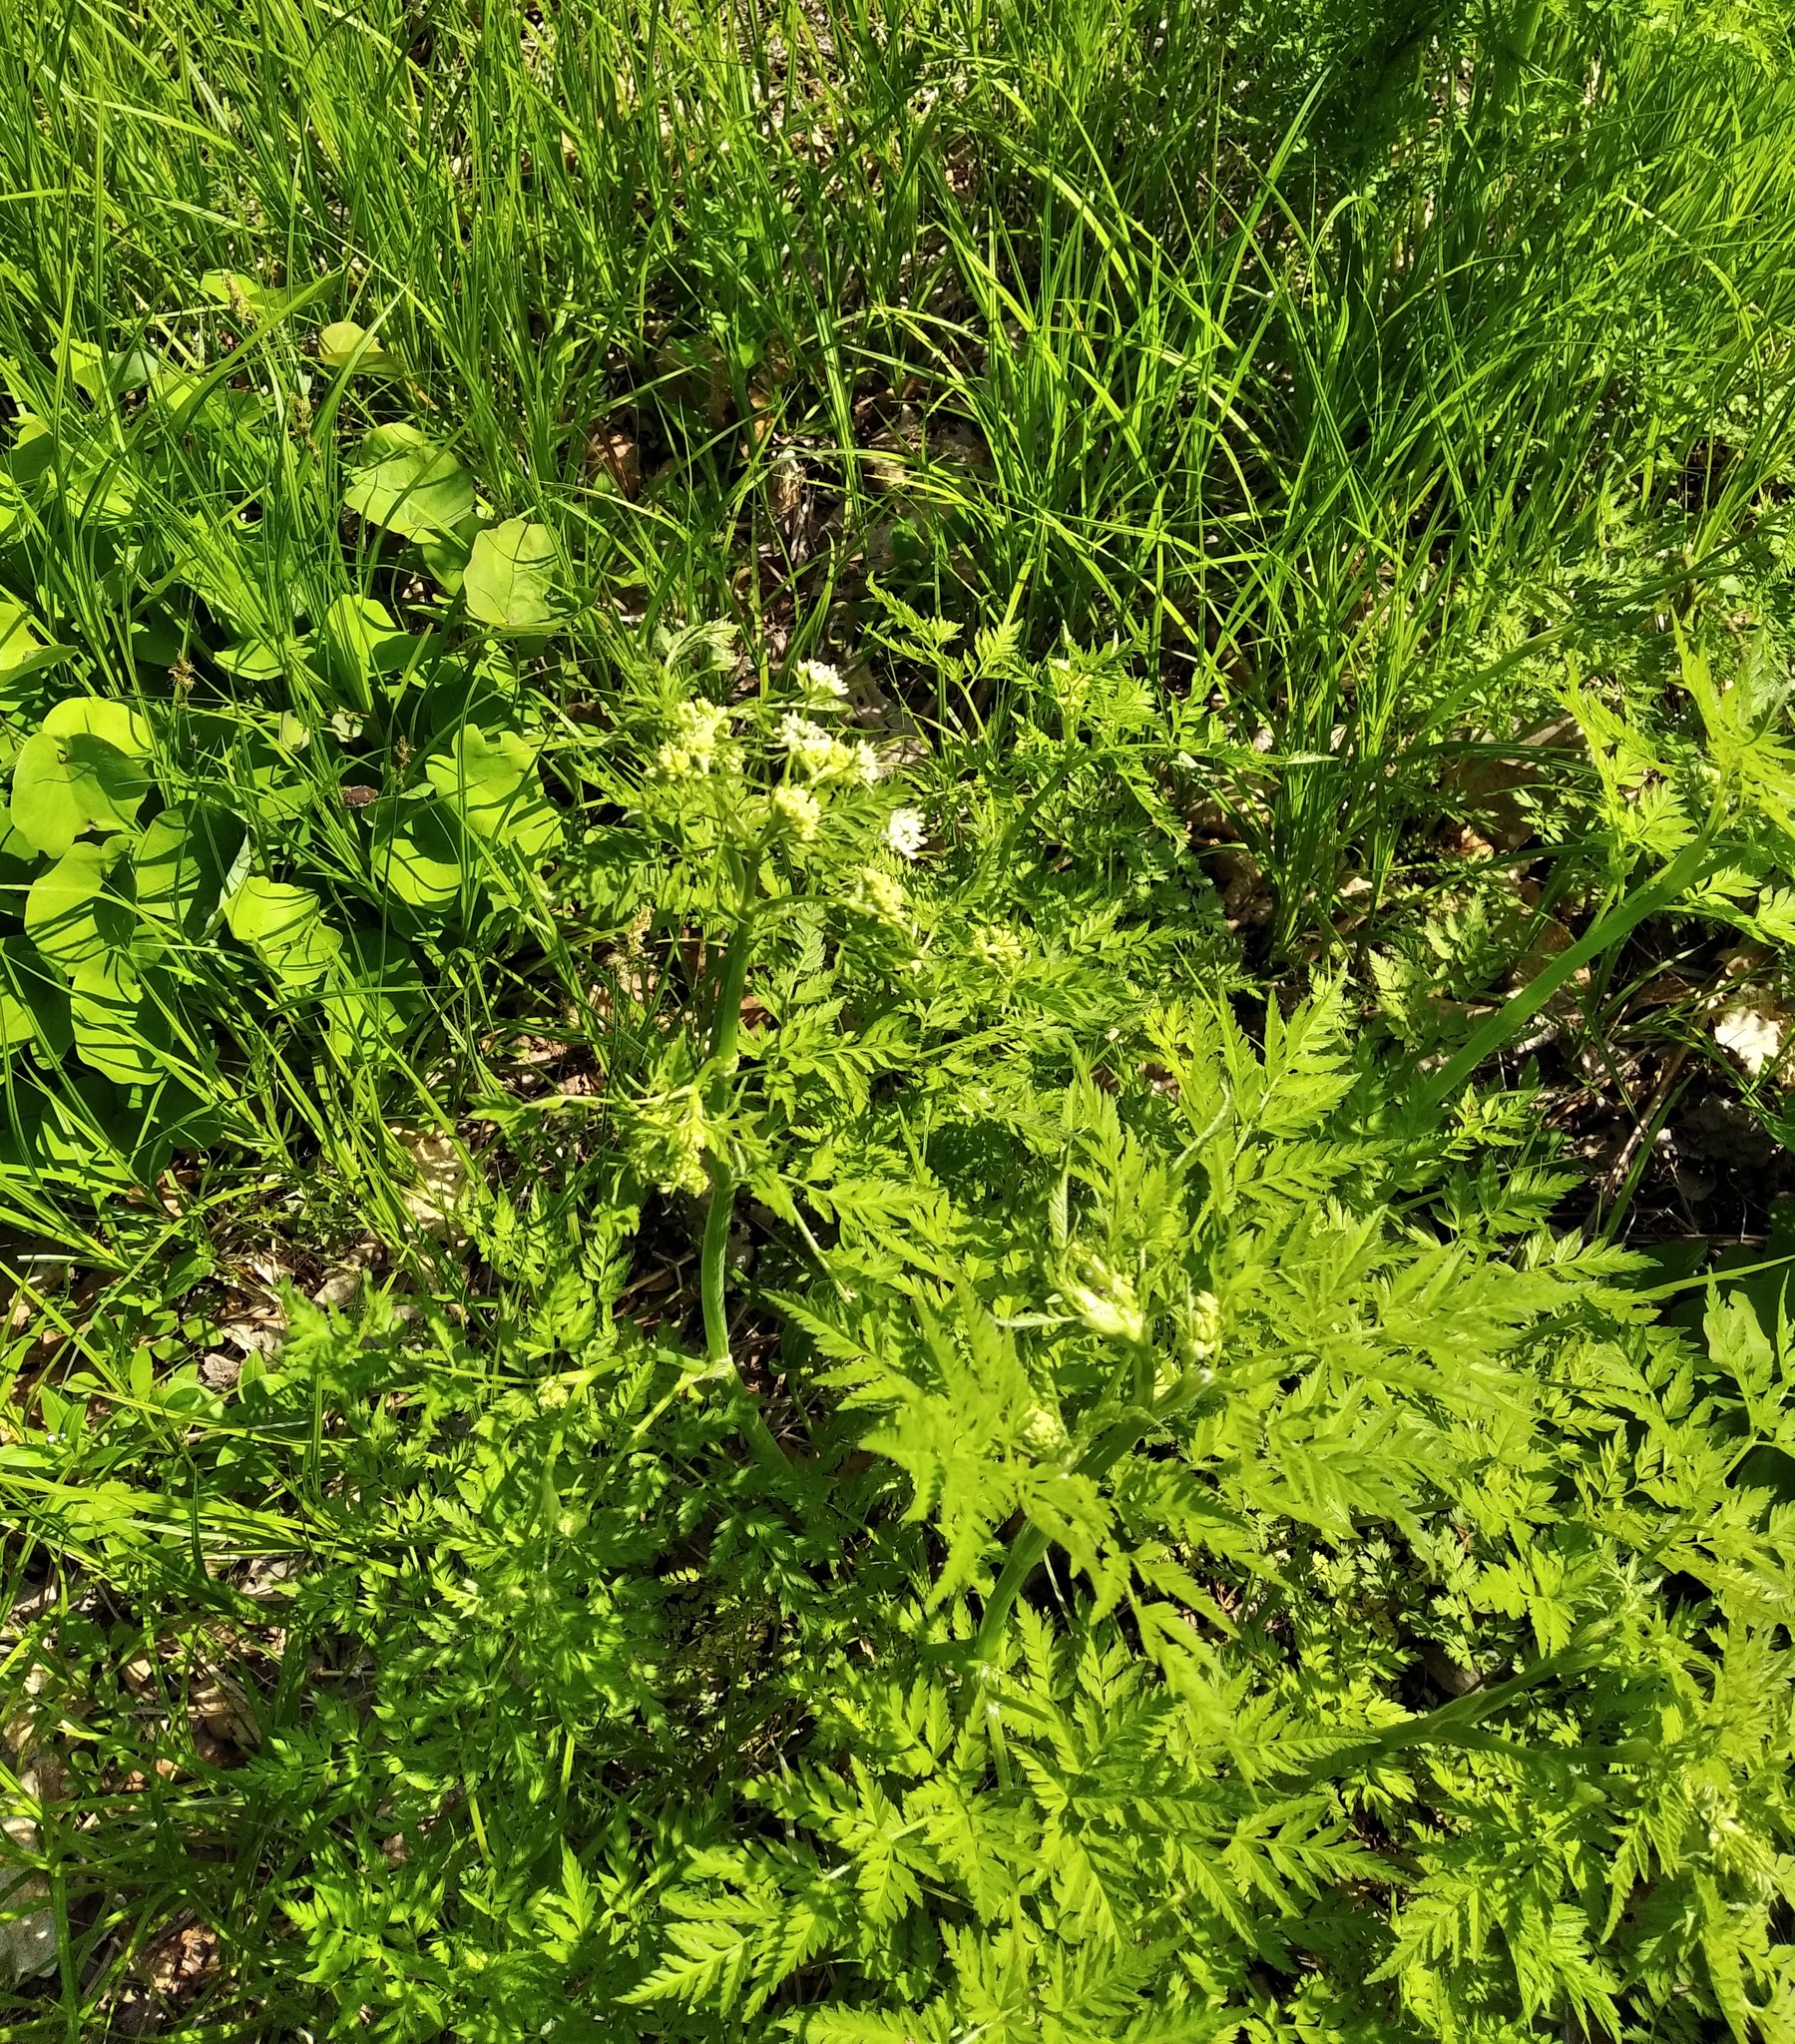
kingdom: Plantae
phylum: Tracheophyta
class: Magnoliopsida
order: Apiales
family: Apiaceae
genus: Anthriscus
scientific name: Anthriscus sylvestris
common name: Cow parsley
